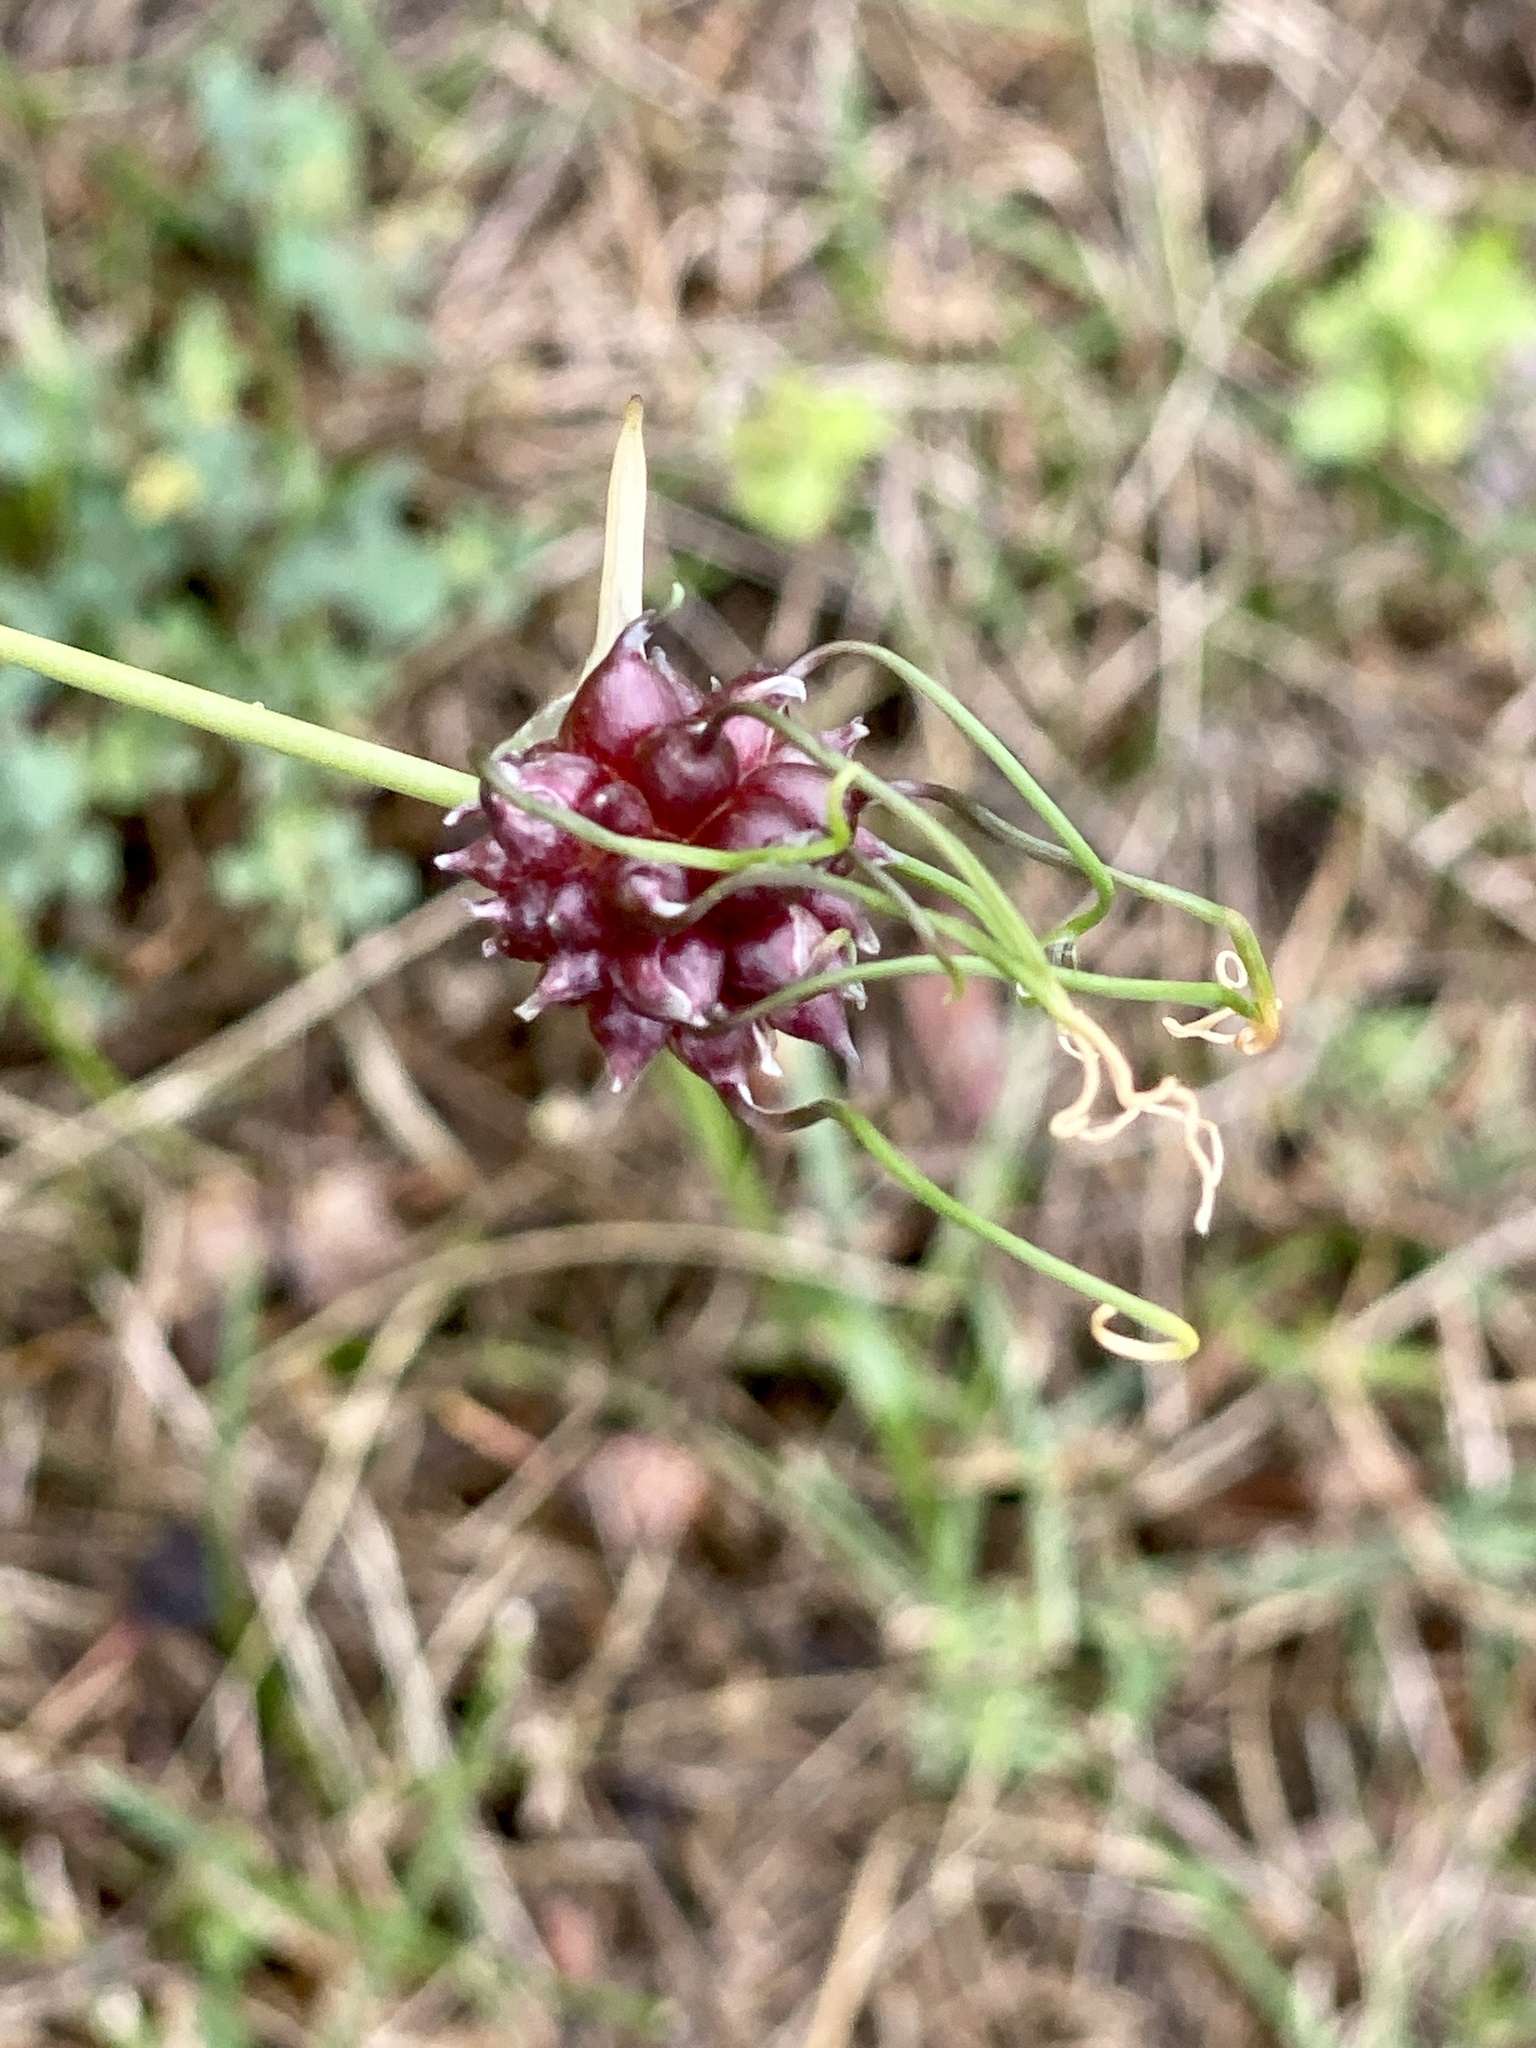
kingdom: Plantae
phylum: Tracheophyta
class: Liliopsida
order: Asparagales
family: Amaryllidaceae
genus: Allium
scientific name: Allium vineale
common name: Crow garlic
